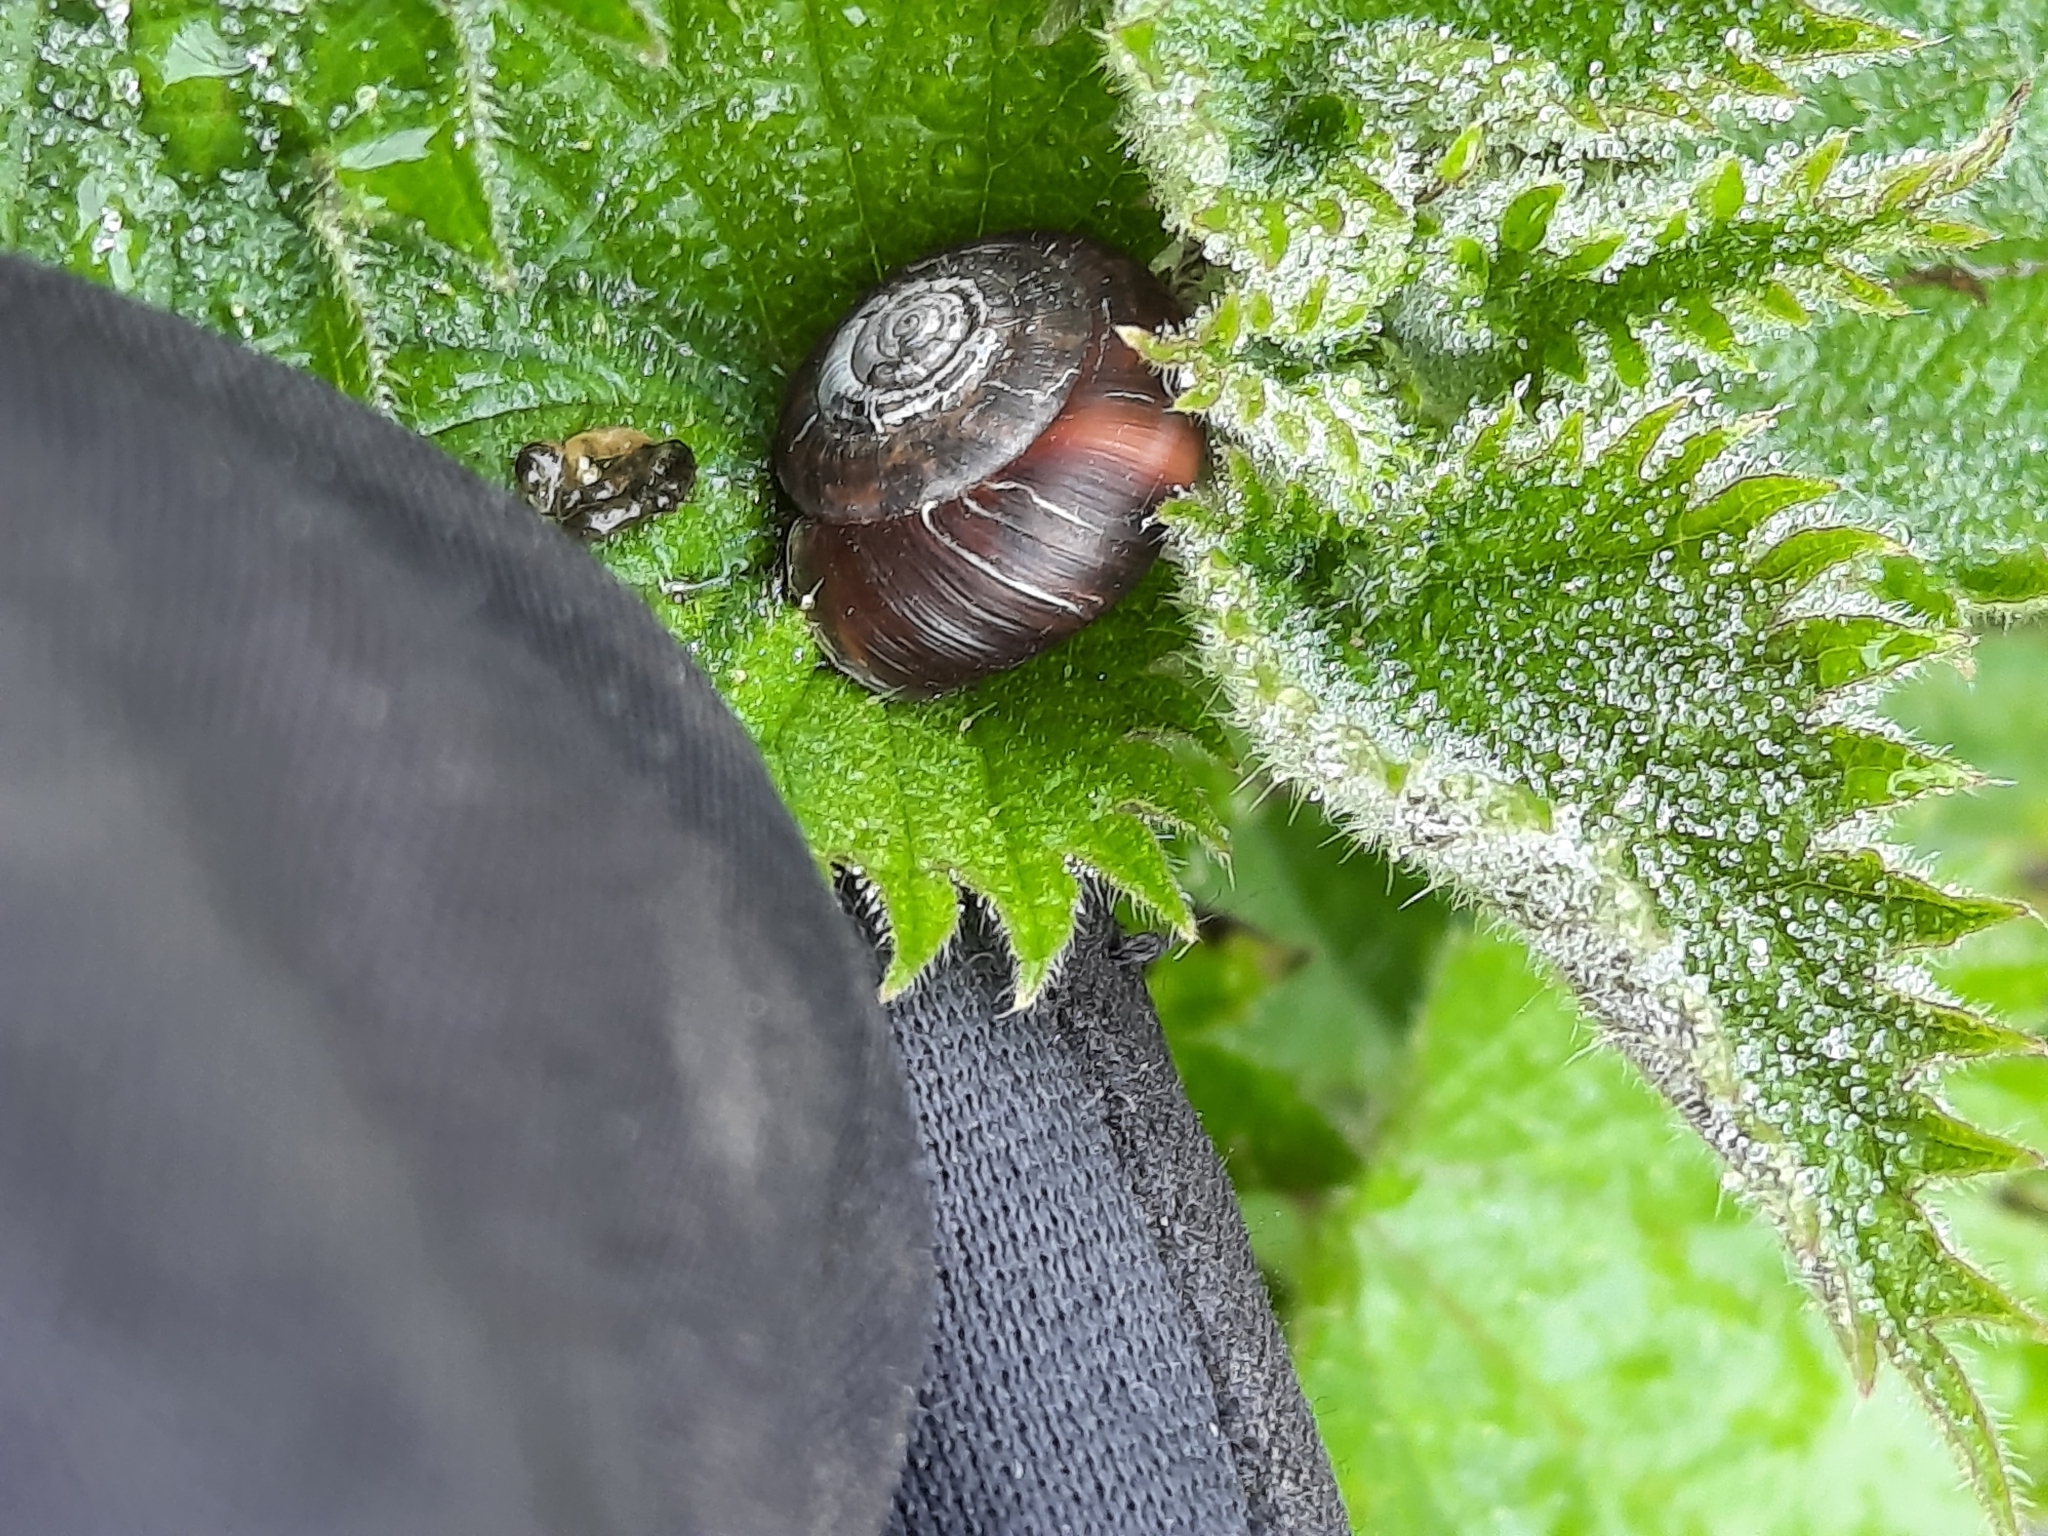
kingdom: Animalia
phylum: Mollusca
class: Gastropoda
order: Stylommatophora
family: Hygromiidae
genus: Trochulus
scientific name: Trochulus striolatus
